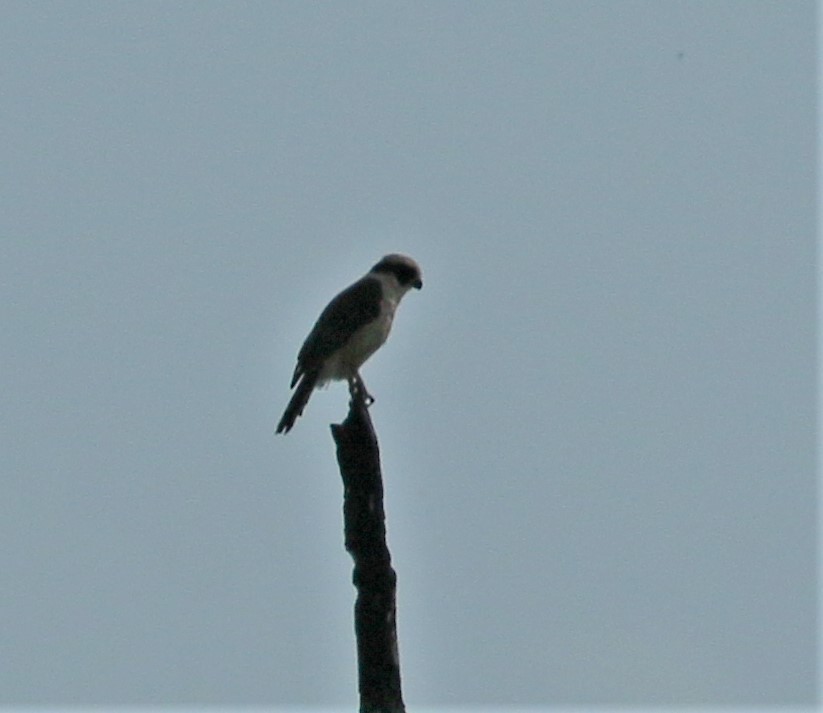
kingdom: Animalia
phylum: Chordata
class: Aves
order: Falconiformes
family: Falconidae
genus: Herpetotheres
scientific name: Herpetotheres cachinnans
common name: Laughing falcon
